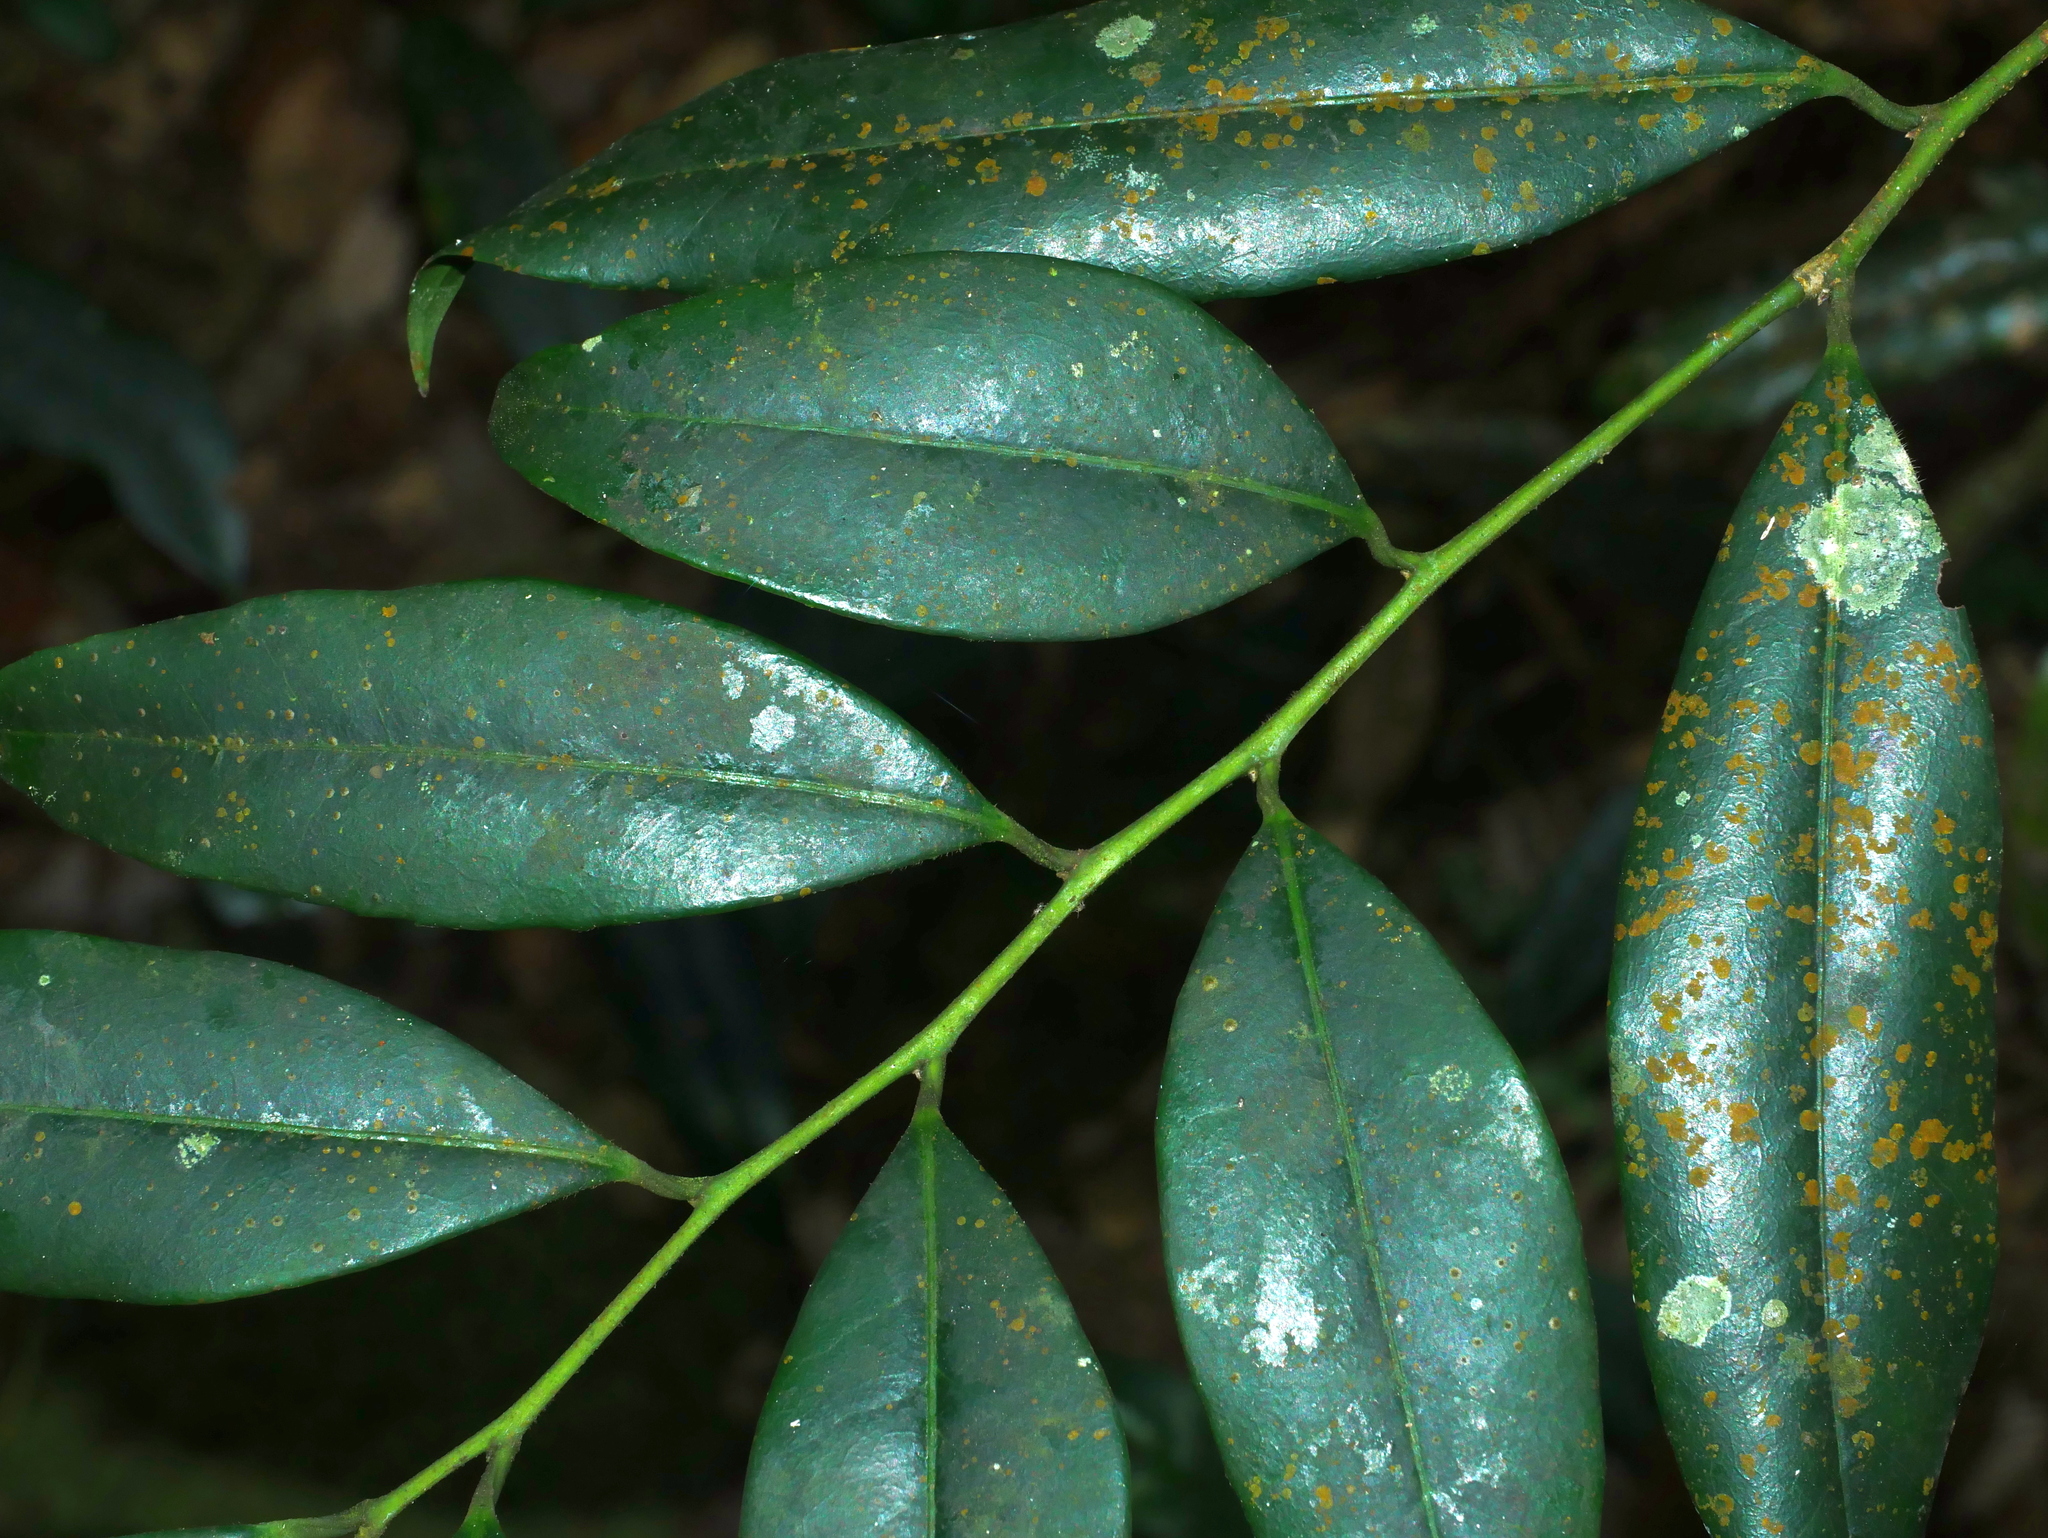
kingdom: Plantae
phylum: Tracheophyta
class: Magnoliopsida
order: Ericales
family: Pentaphylacaceae
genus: Cleyera
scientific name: Cleyera japonica
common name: Sakaki
